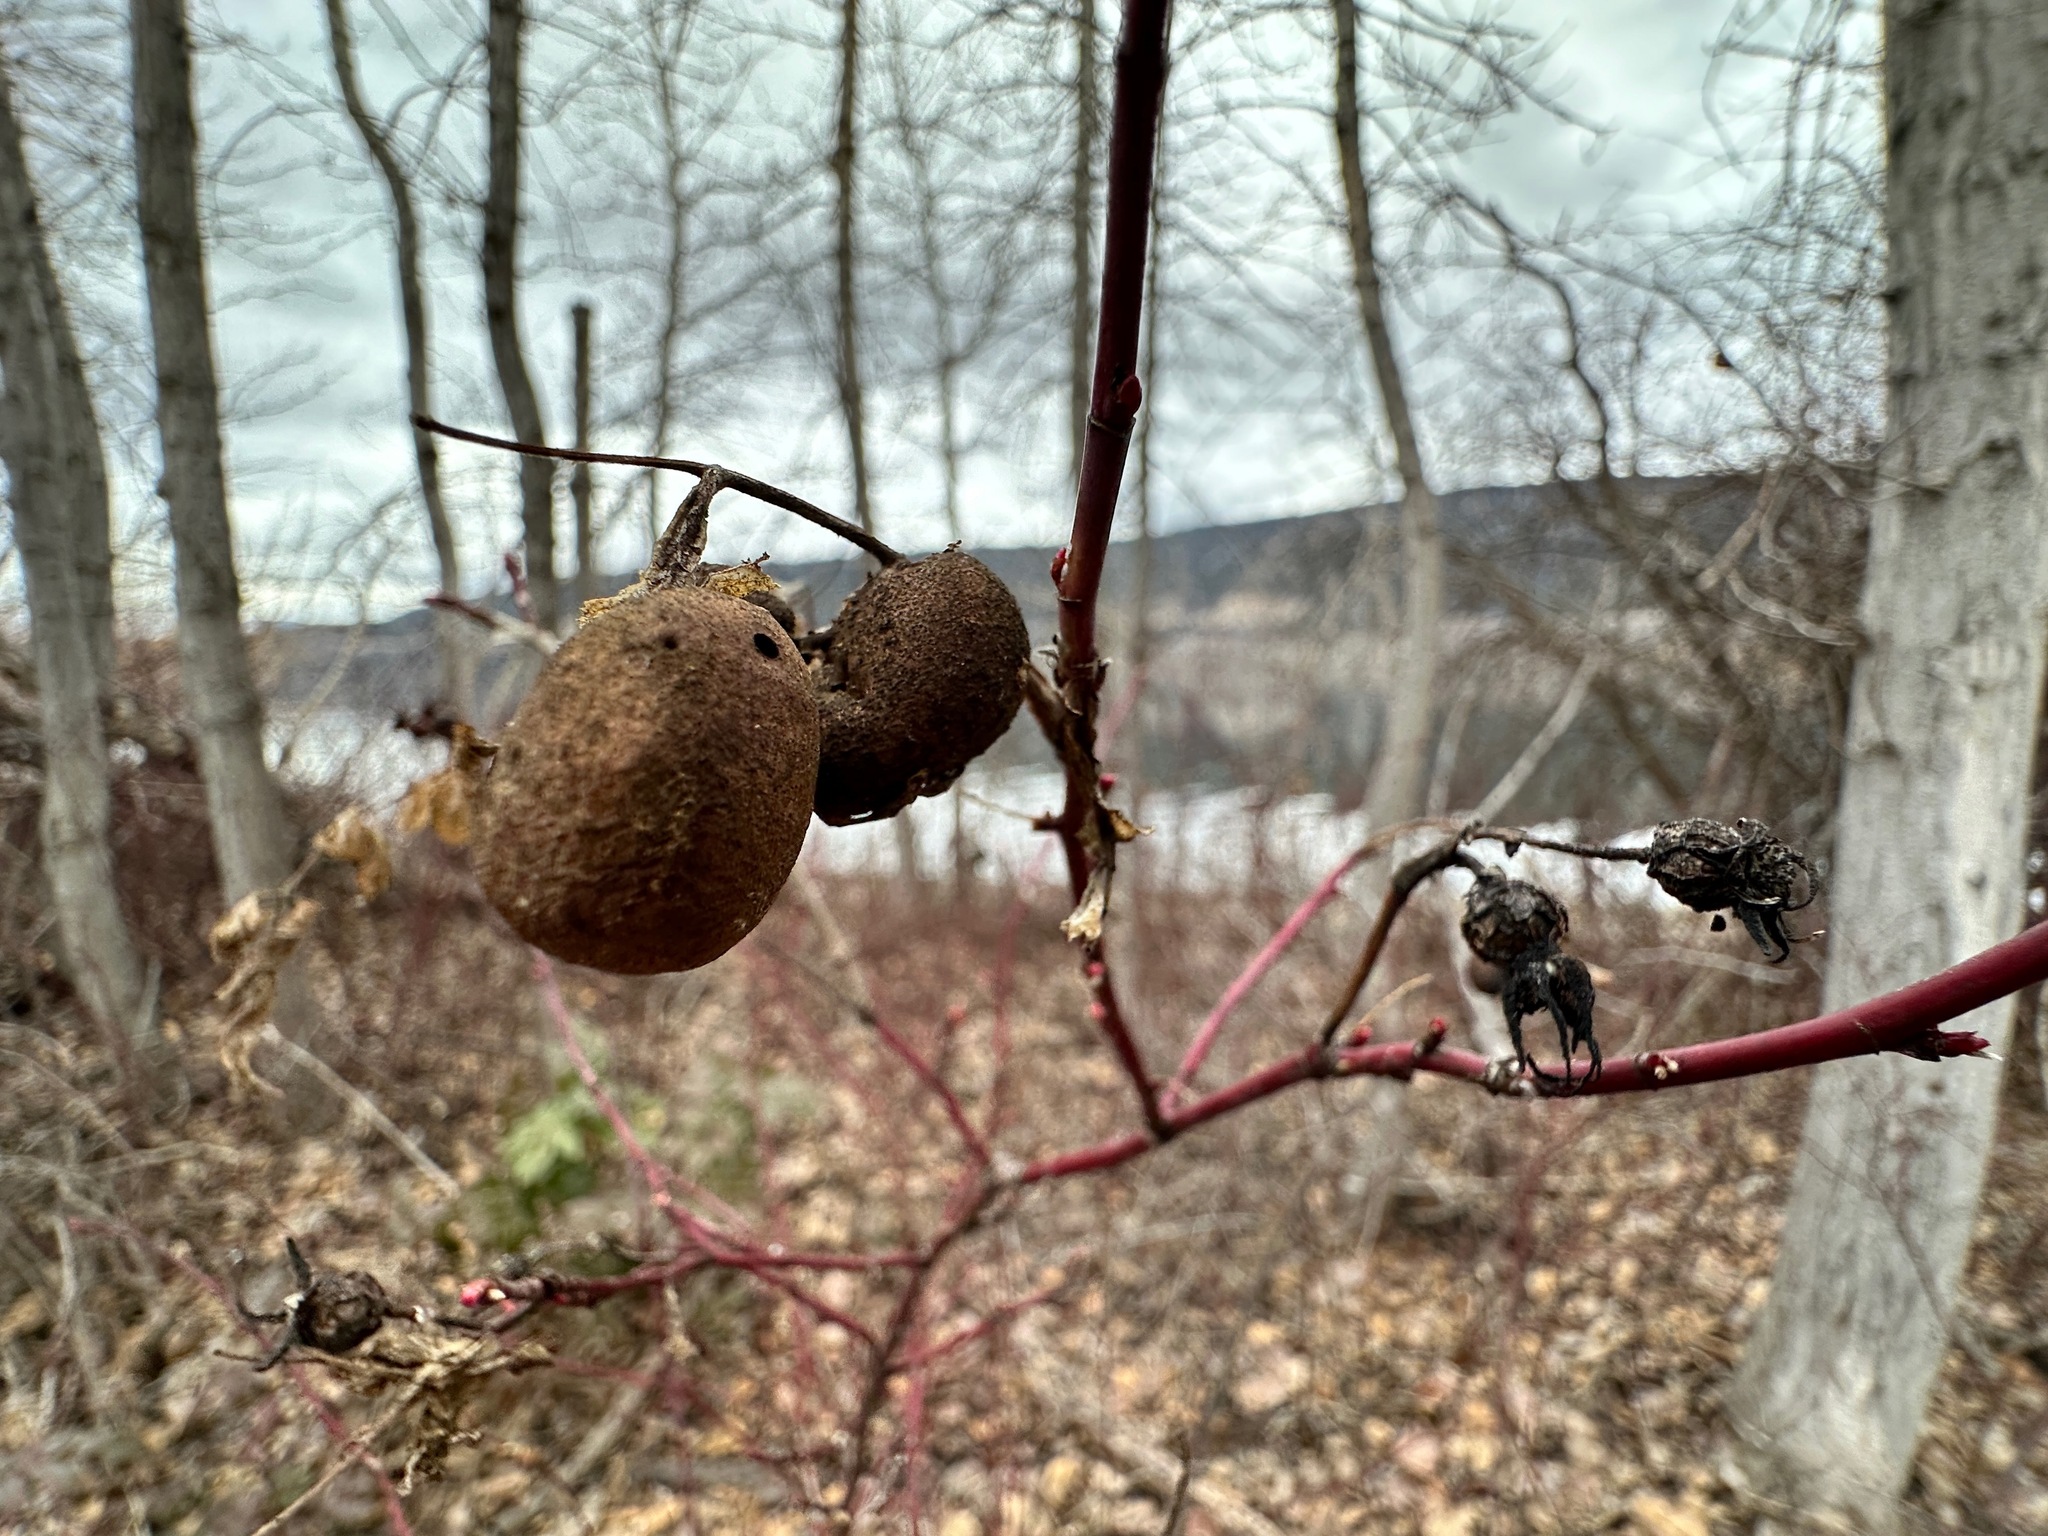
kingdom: Animalia
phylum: Arthropoda
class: Insecta
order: Hymenoptera
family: Cynipidae
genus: Diplolepis
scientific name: Diplolepis variabilis
